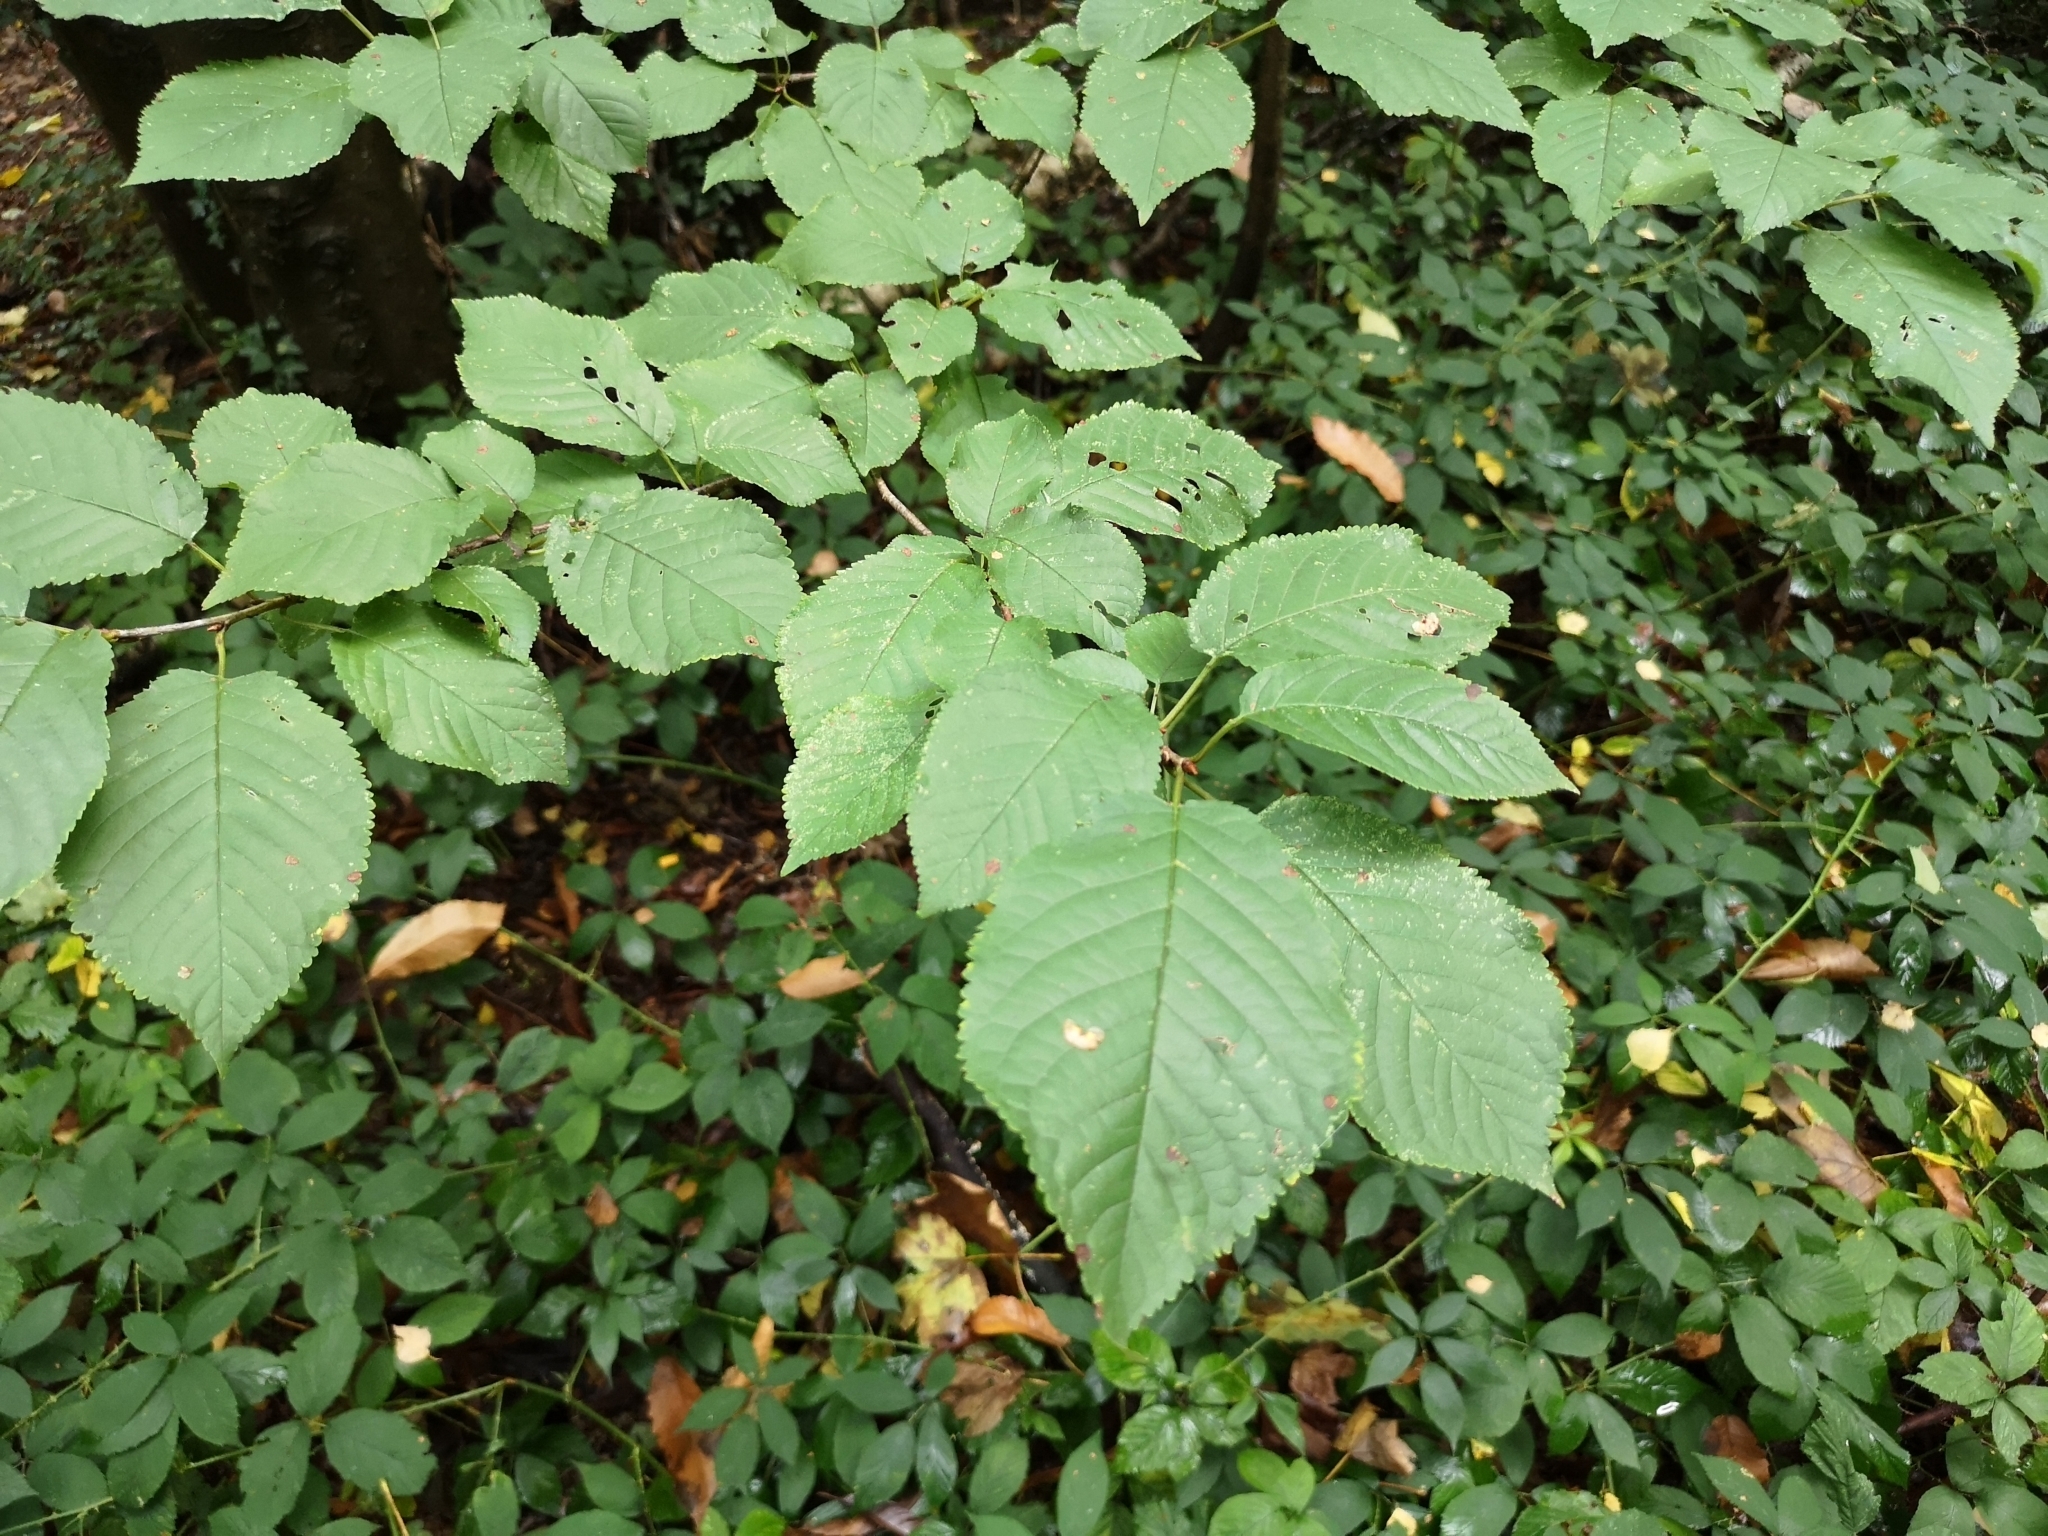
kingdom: Plantae
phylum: Tracheophyta
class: Magnoliopsida
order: Rosales
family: Rosaceae
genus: Prunus
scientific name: Prunus avium
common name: Sweet cherry
